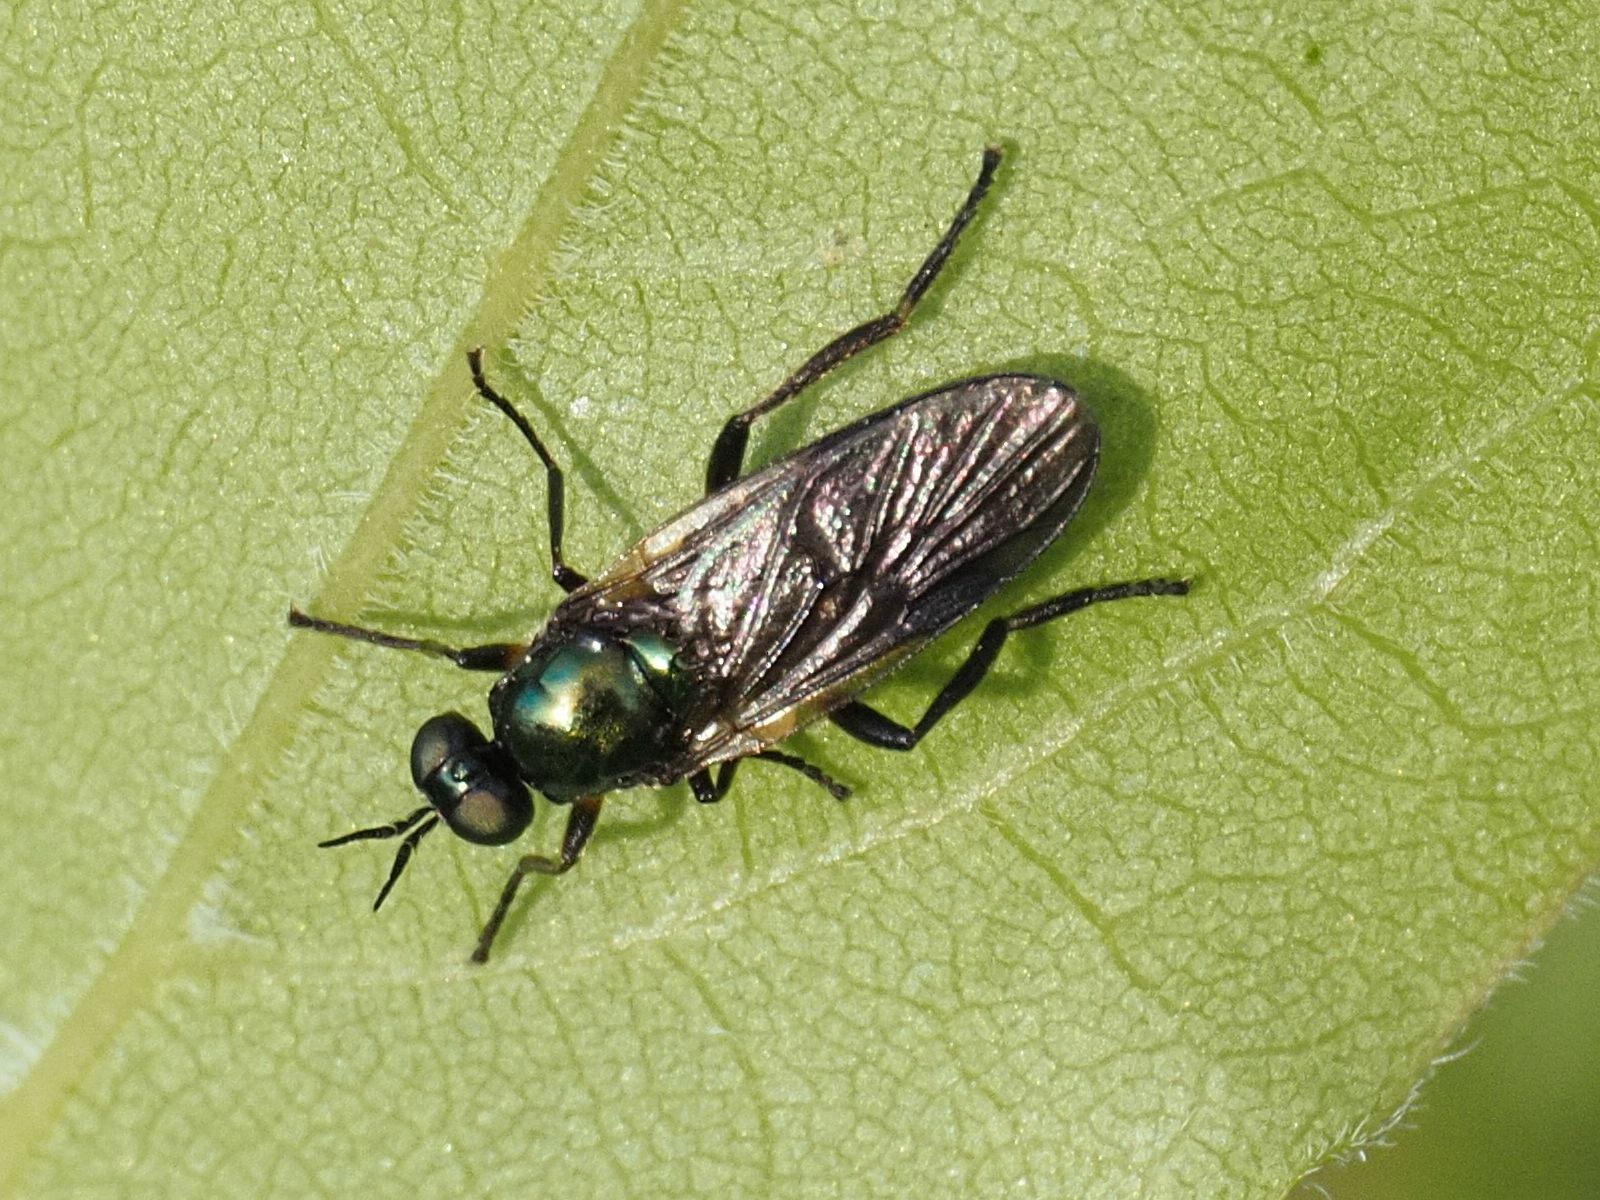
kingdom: Animalia
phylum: Arthropoda
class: Insecta
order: Diptera
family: Stratiomyidae
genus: Actina
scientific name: Actina chalybea
